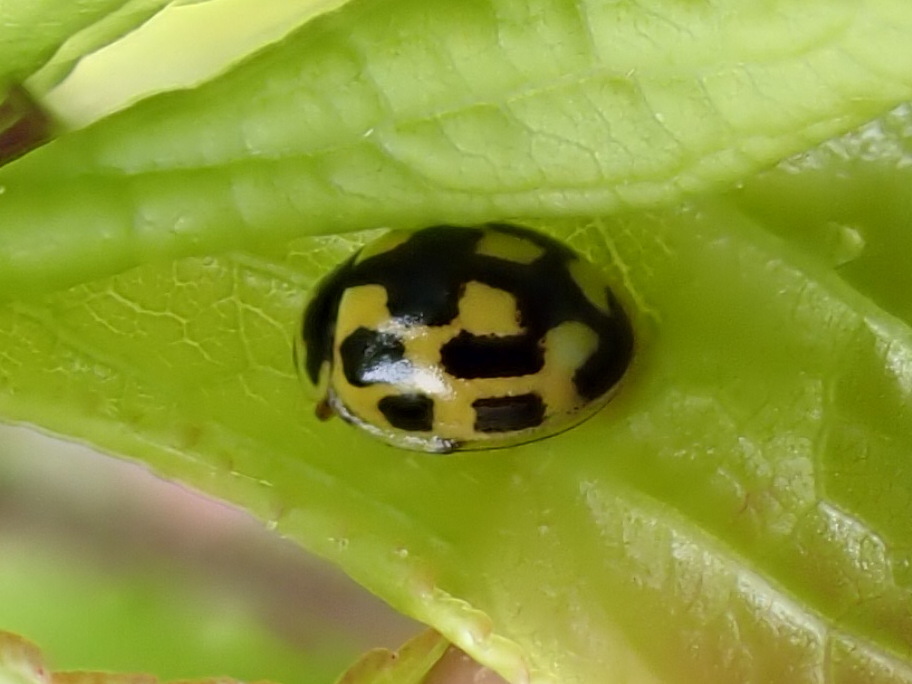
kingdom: Animalia
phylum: Arthropoda
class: Insecta
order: Coleoptera
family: Coccinellidae
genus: Propylaea
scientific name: Propylaea quatuordecimpunctata
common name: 14-spotted ladybird beetle
